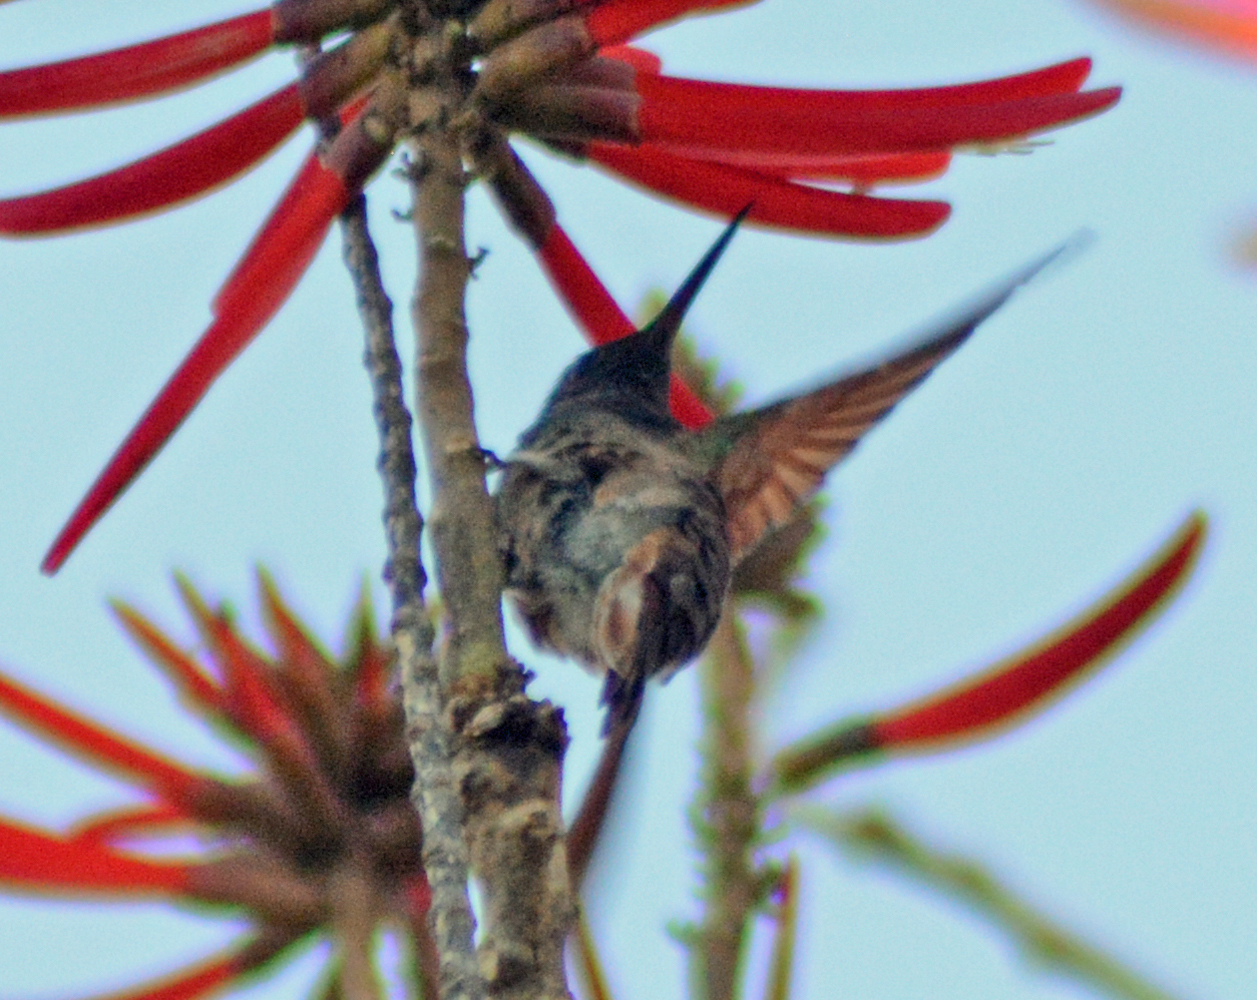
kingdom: Animalia
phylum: Chordata
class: Aves
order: Apodiformes
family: Trochilidae
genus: Saucerottia
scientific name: Saucerottia beryllina
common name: Berylline hummingbird
